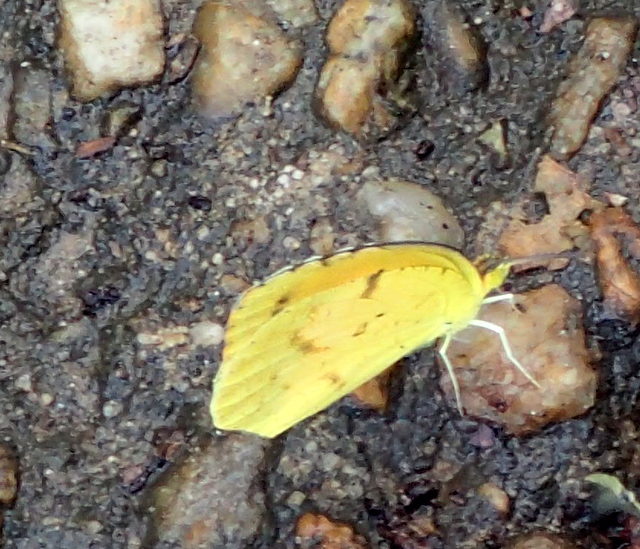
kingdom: Animalia
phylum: Arthropoda
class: Insecta
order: Lepidoptera
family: Pieridae
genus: Abaeis
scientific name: Abaeis nicippe
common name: Sleepy orange
